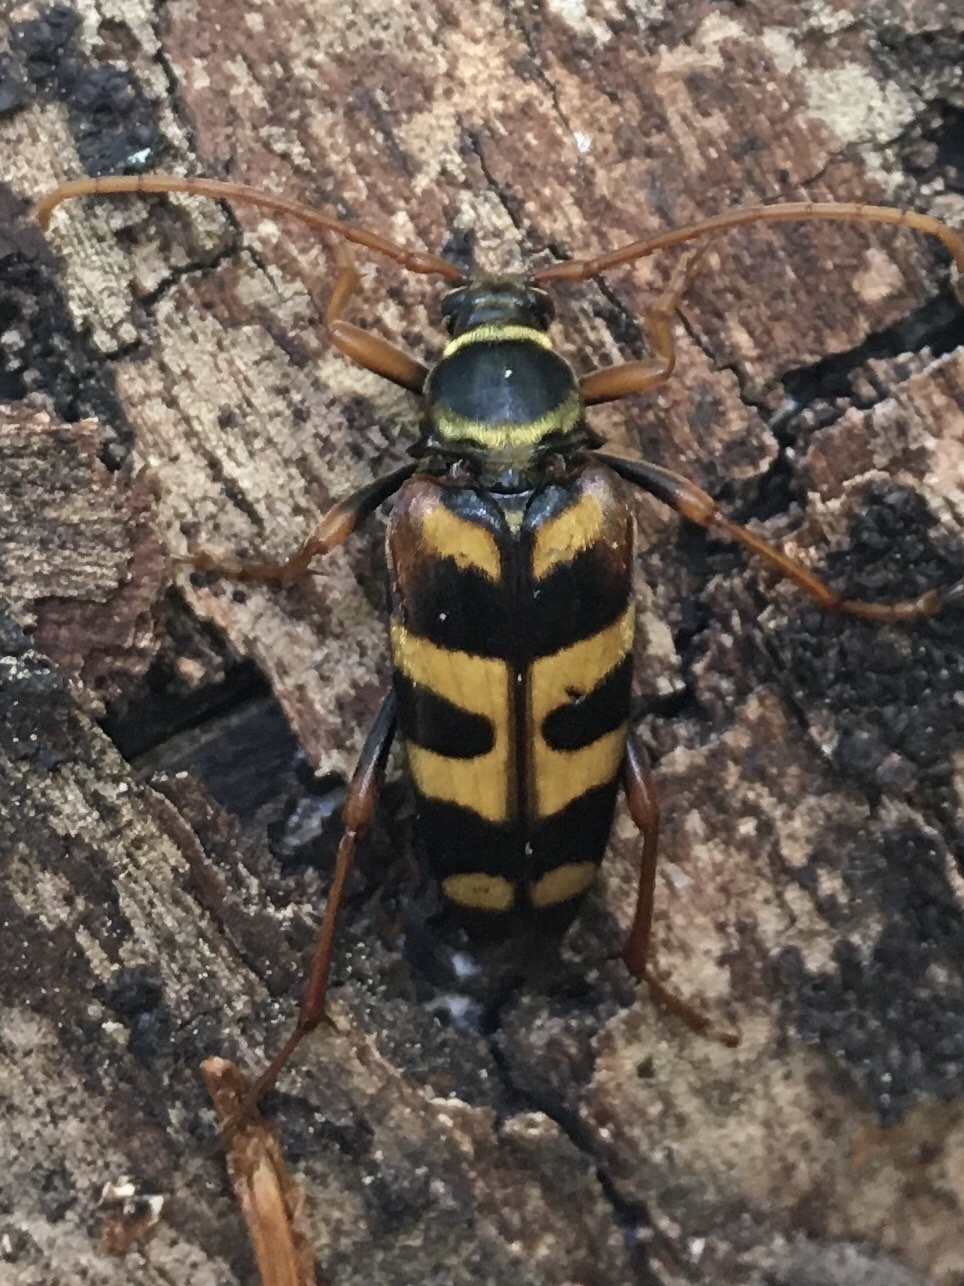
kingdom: Animalia
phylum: Arthropoda
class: Insecta
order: Coleoptera
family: Cerambycidae
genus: Leptura
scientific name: Leptura aurulenta
